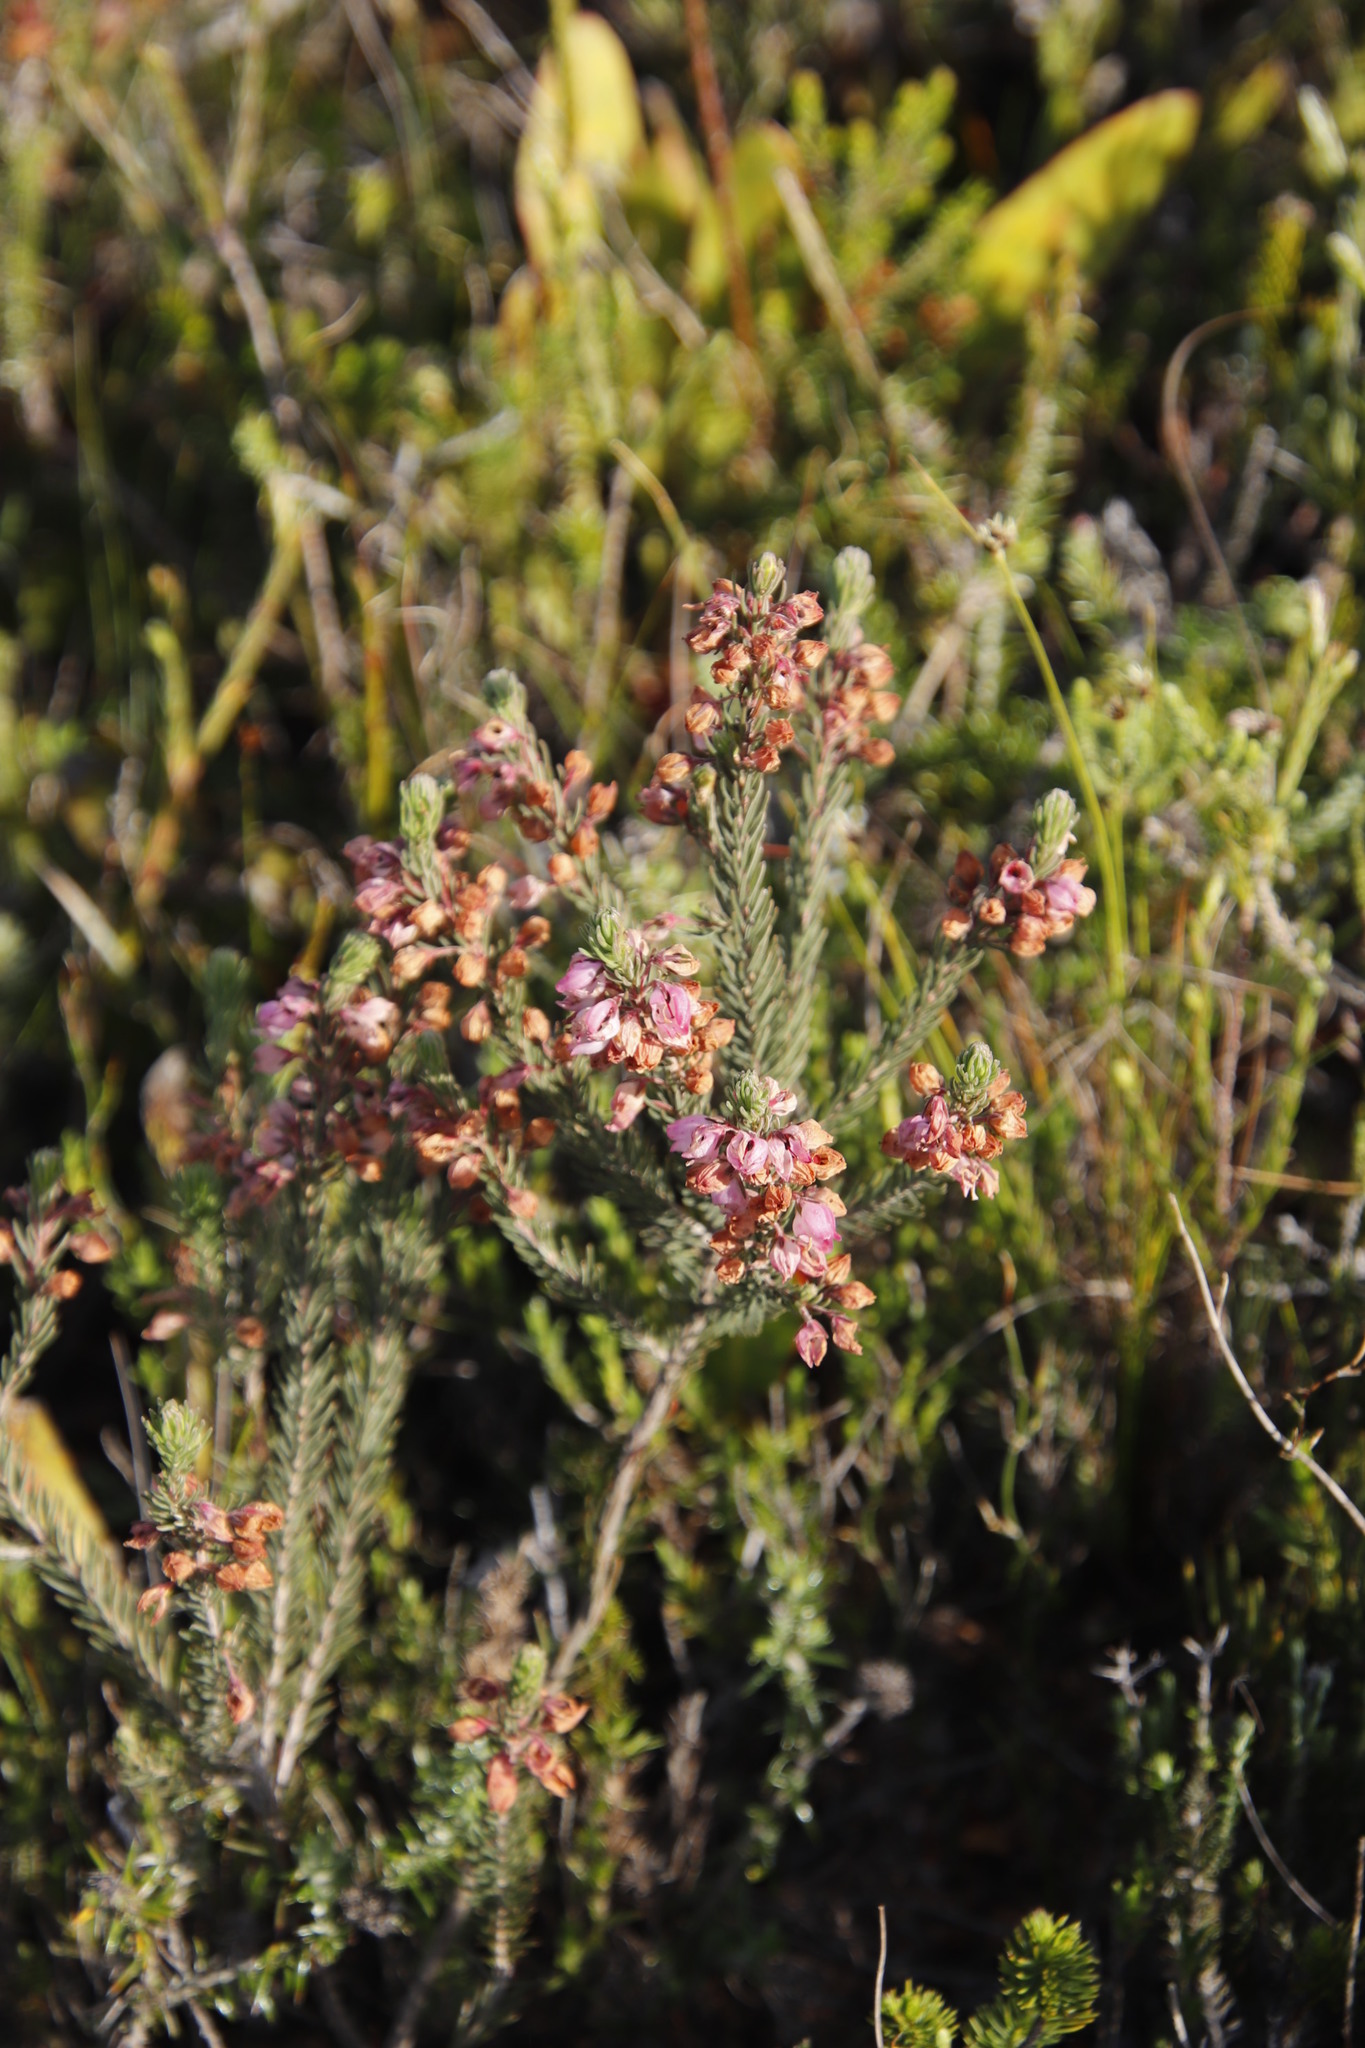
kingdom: Plantae
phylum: Tracheophyta
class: Magnoliopsida
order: Ericales
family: Ericaceae
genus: Erica
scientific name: Erica viscaria
